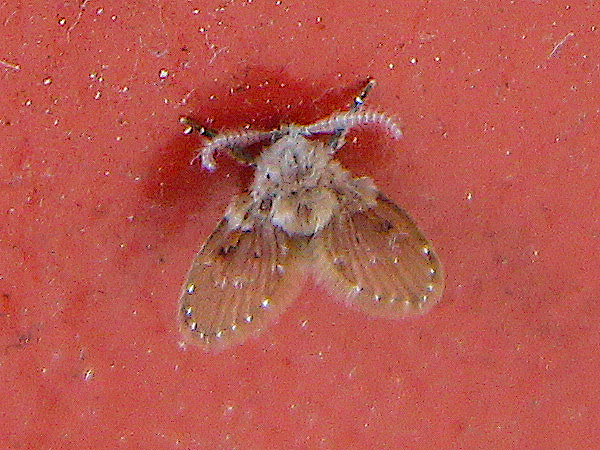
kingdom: Animalia
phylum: Arthropoda
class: Insecta
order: Diptera
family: Psychodidae
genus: Clogmia
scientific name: Clogmia albipunctatus
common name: White-spotted moth fly
